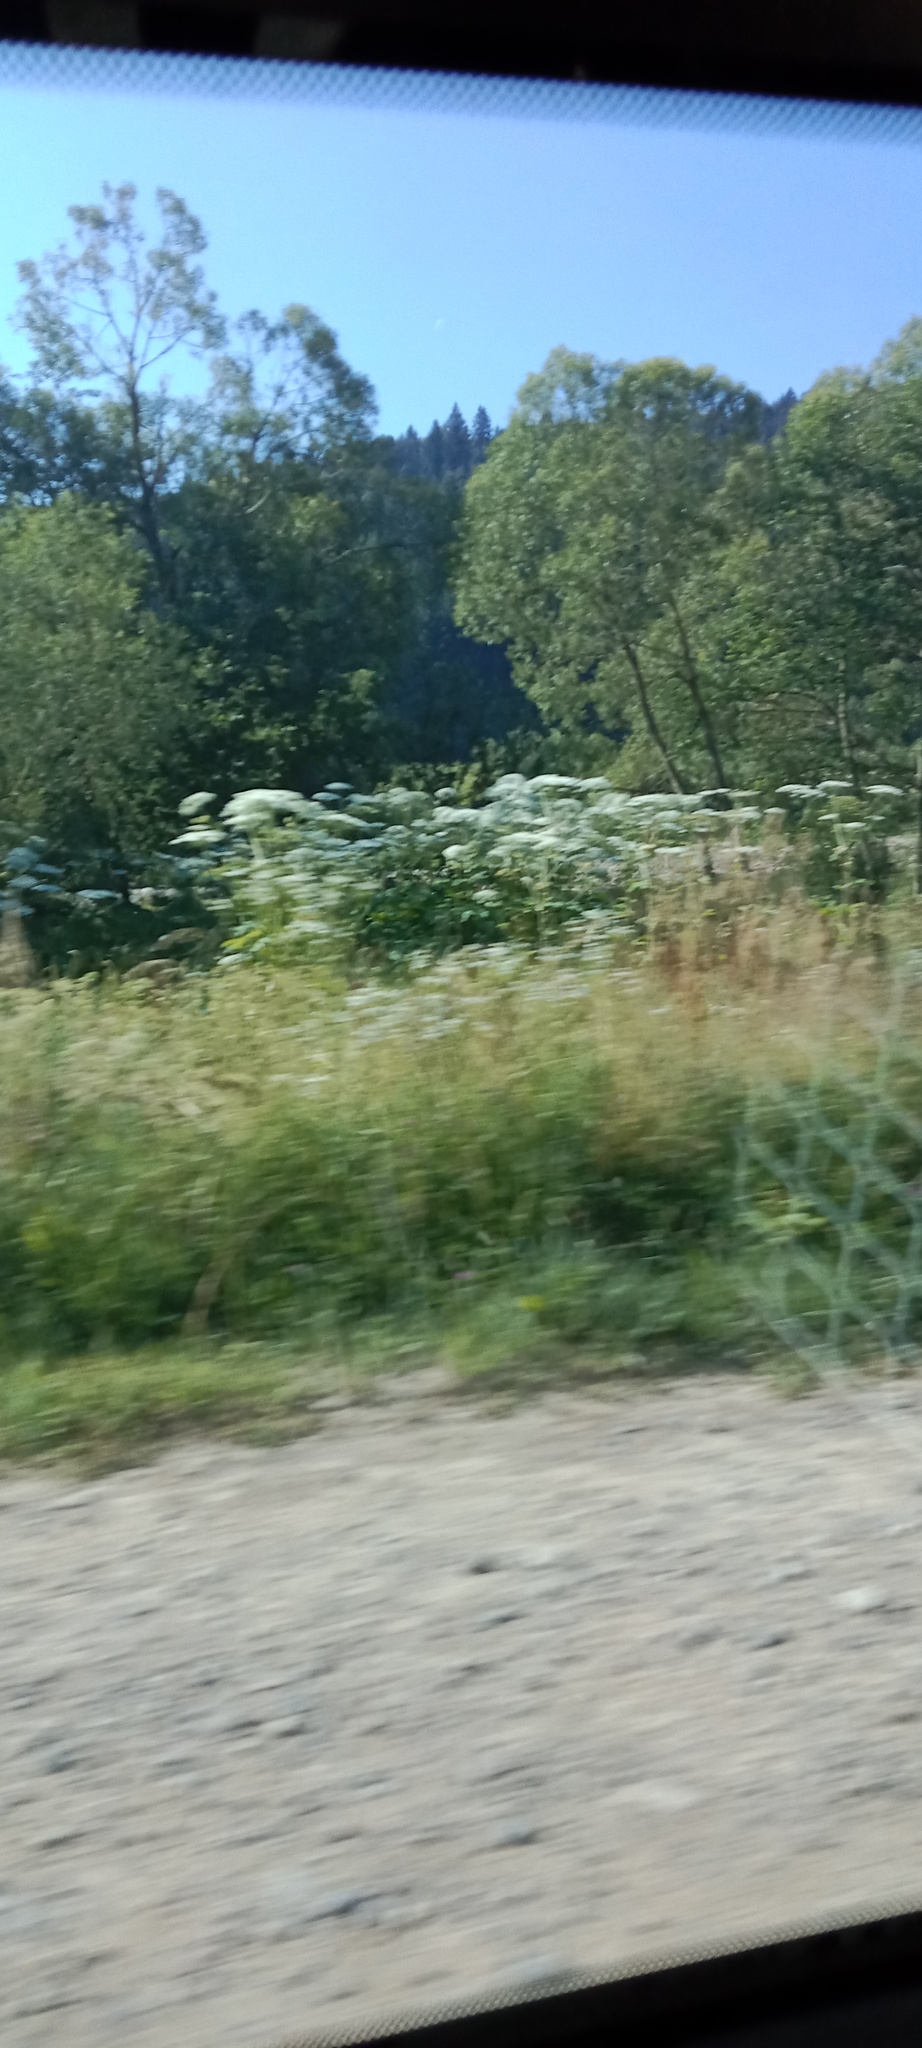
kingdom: Plantae
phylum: Tracheophyta
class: Magnoliopsida
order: Apiales
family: Apiaceae
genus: Heracleum
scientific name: Heracleum sosnowskyi
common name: Sosnowsky's hogweed
